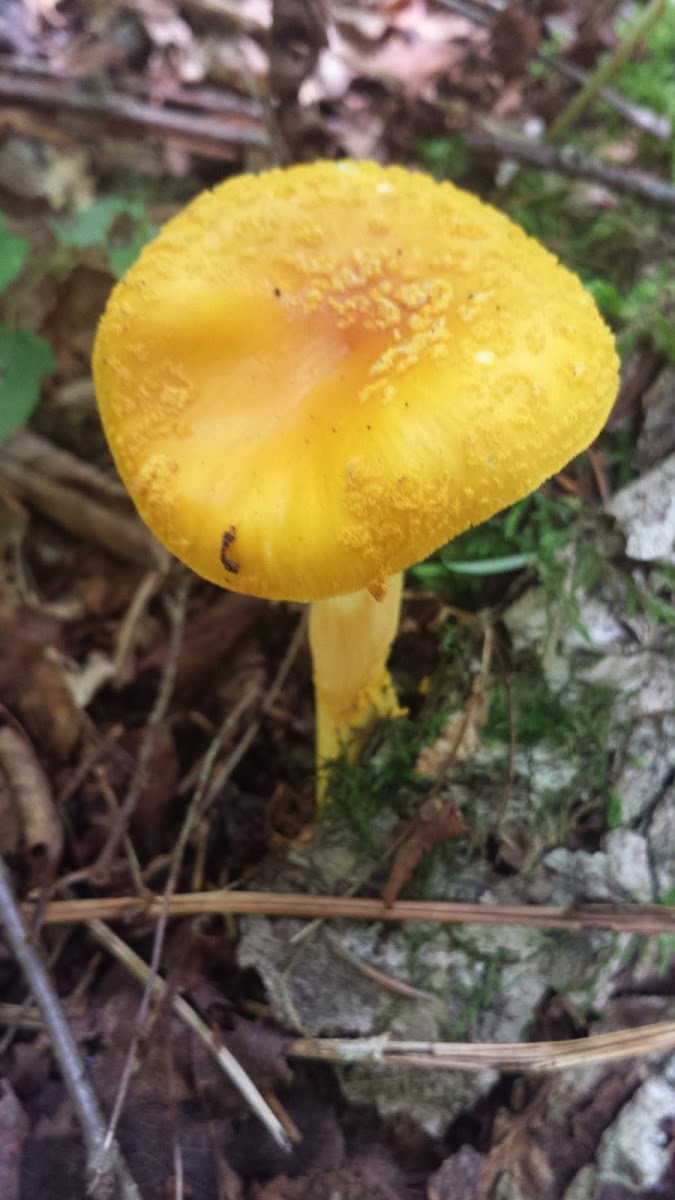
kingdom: Fungi
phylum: Basidiomycota
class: Agaricomycetes
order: Agaricales
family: Amanitaceae
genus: Amanita
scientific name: Amanita flavoconia
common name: Yellow patches
